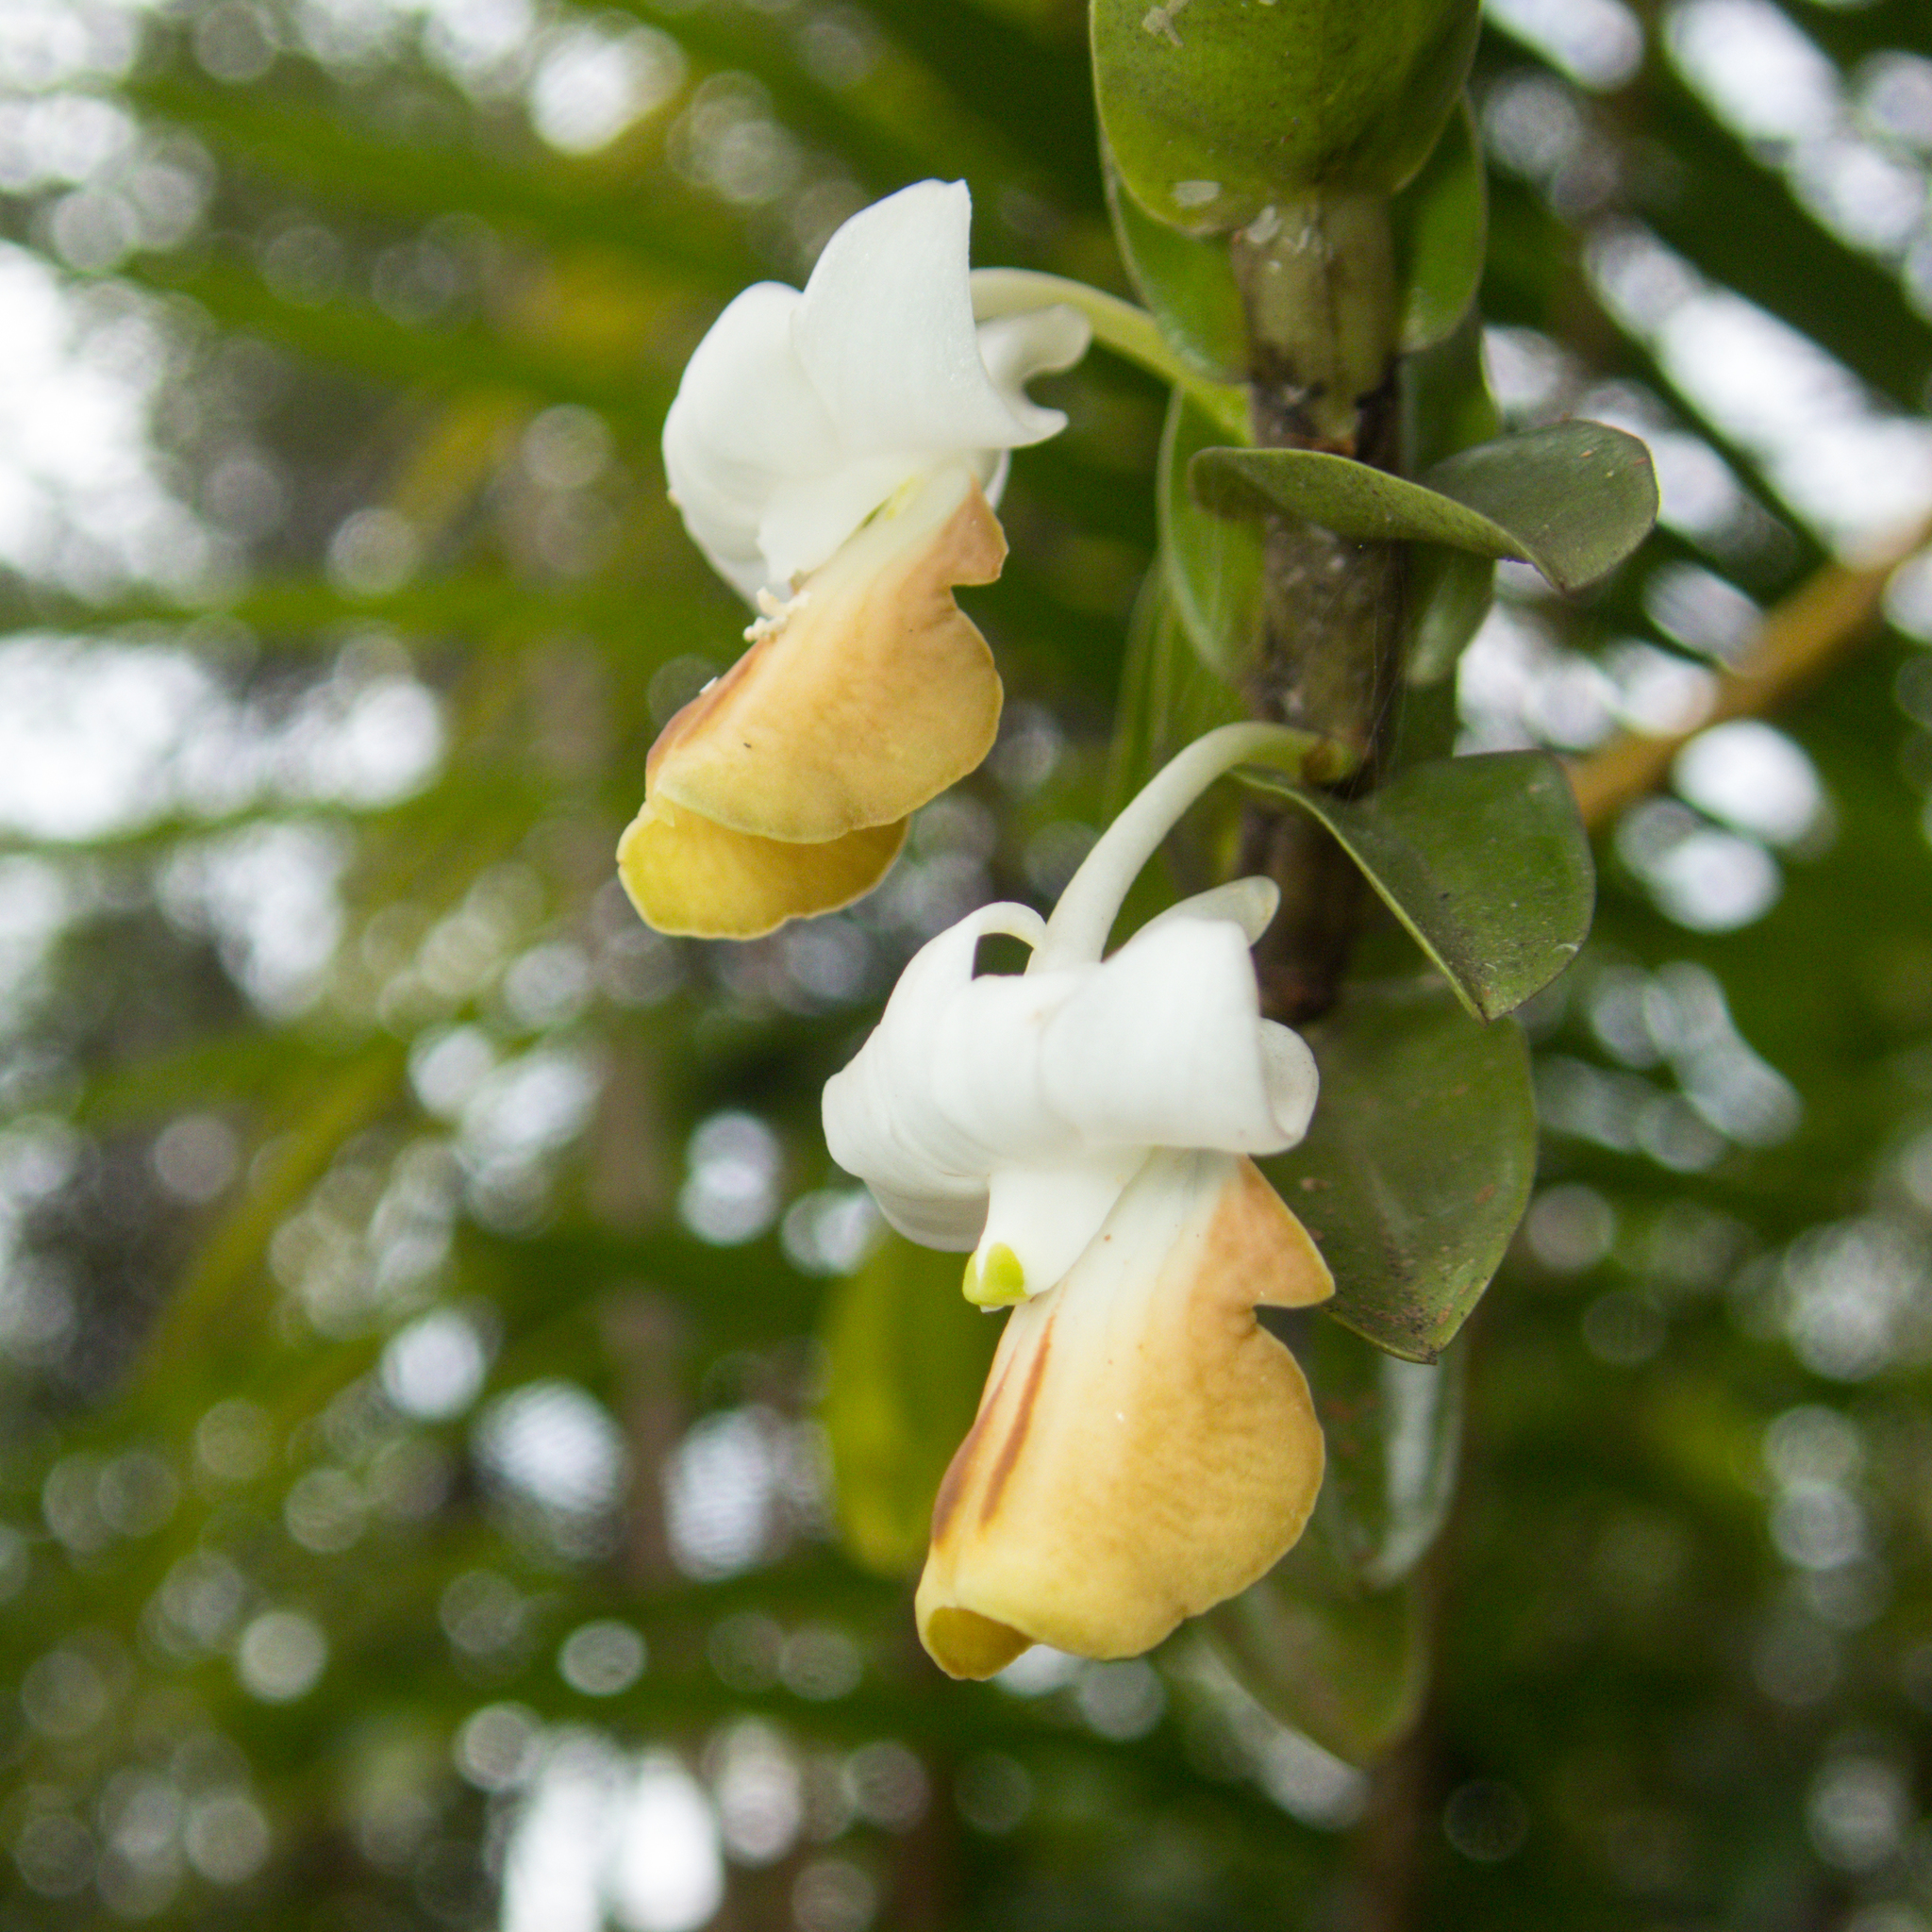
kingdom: Plantae
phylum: Tracheophyta
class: Liliopsida
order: Asparagales
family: Orchidaceae
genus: Dendrobium
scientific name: Dendrobium ellipsophyllum
